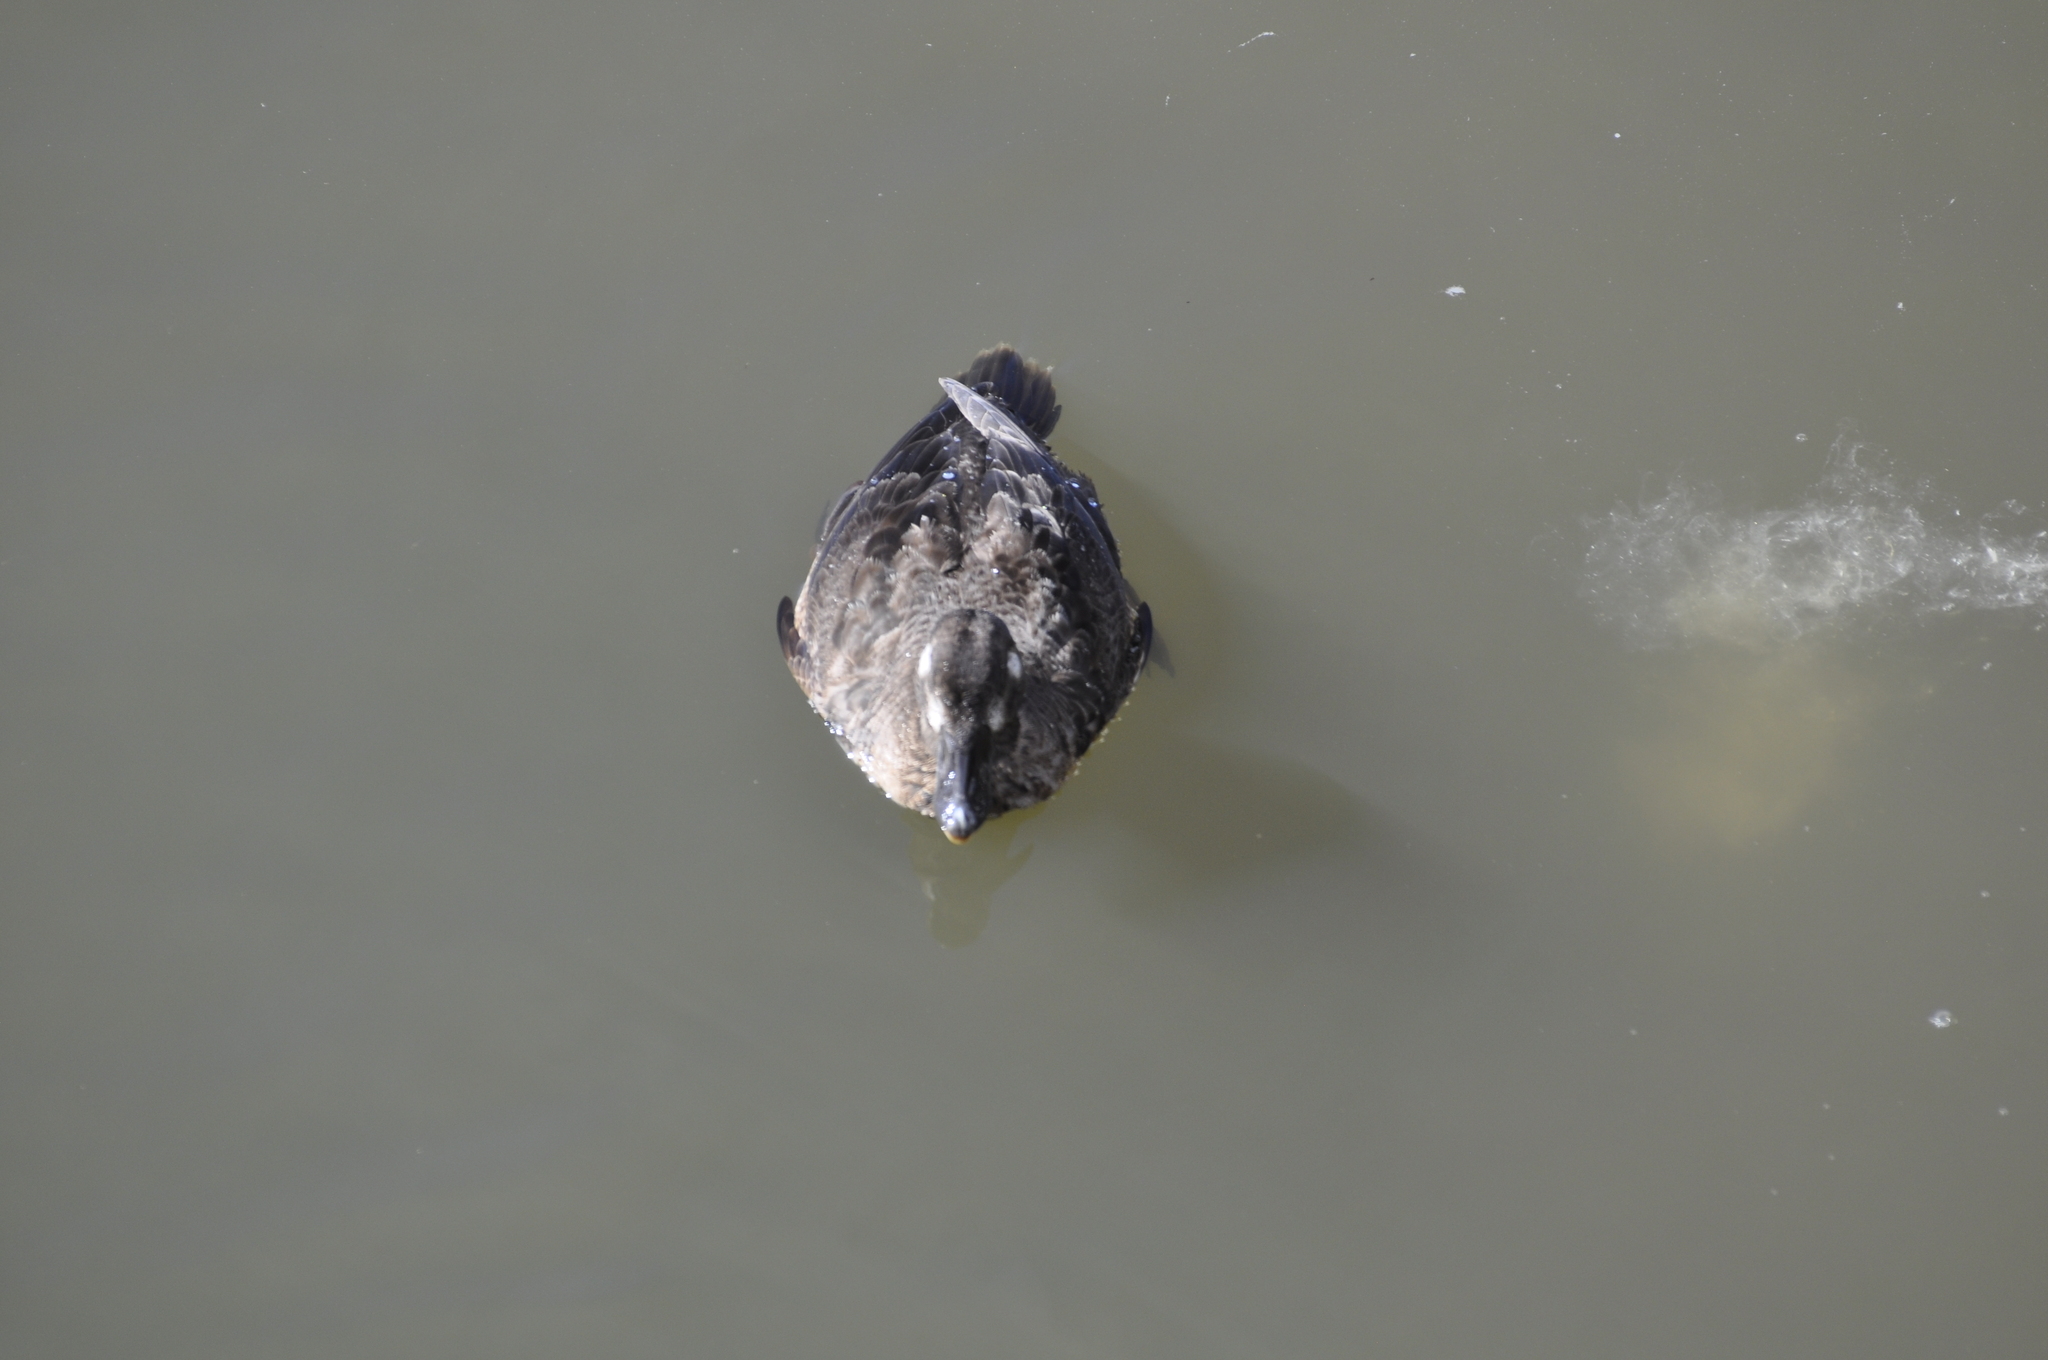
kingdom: Animalia
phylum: Chordata
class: Aves
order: Anseriformes
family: Anatidae
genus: Melanitta
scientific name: Melanitta perspicillata
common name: Surf scoter
